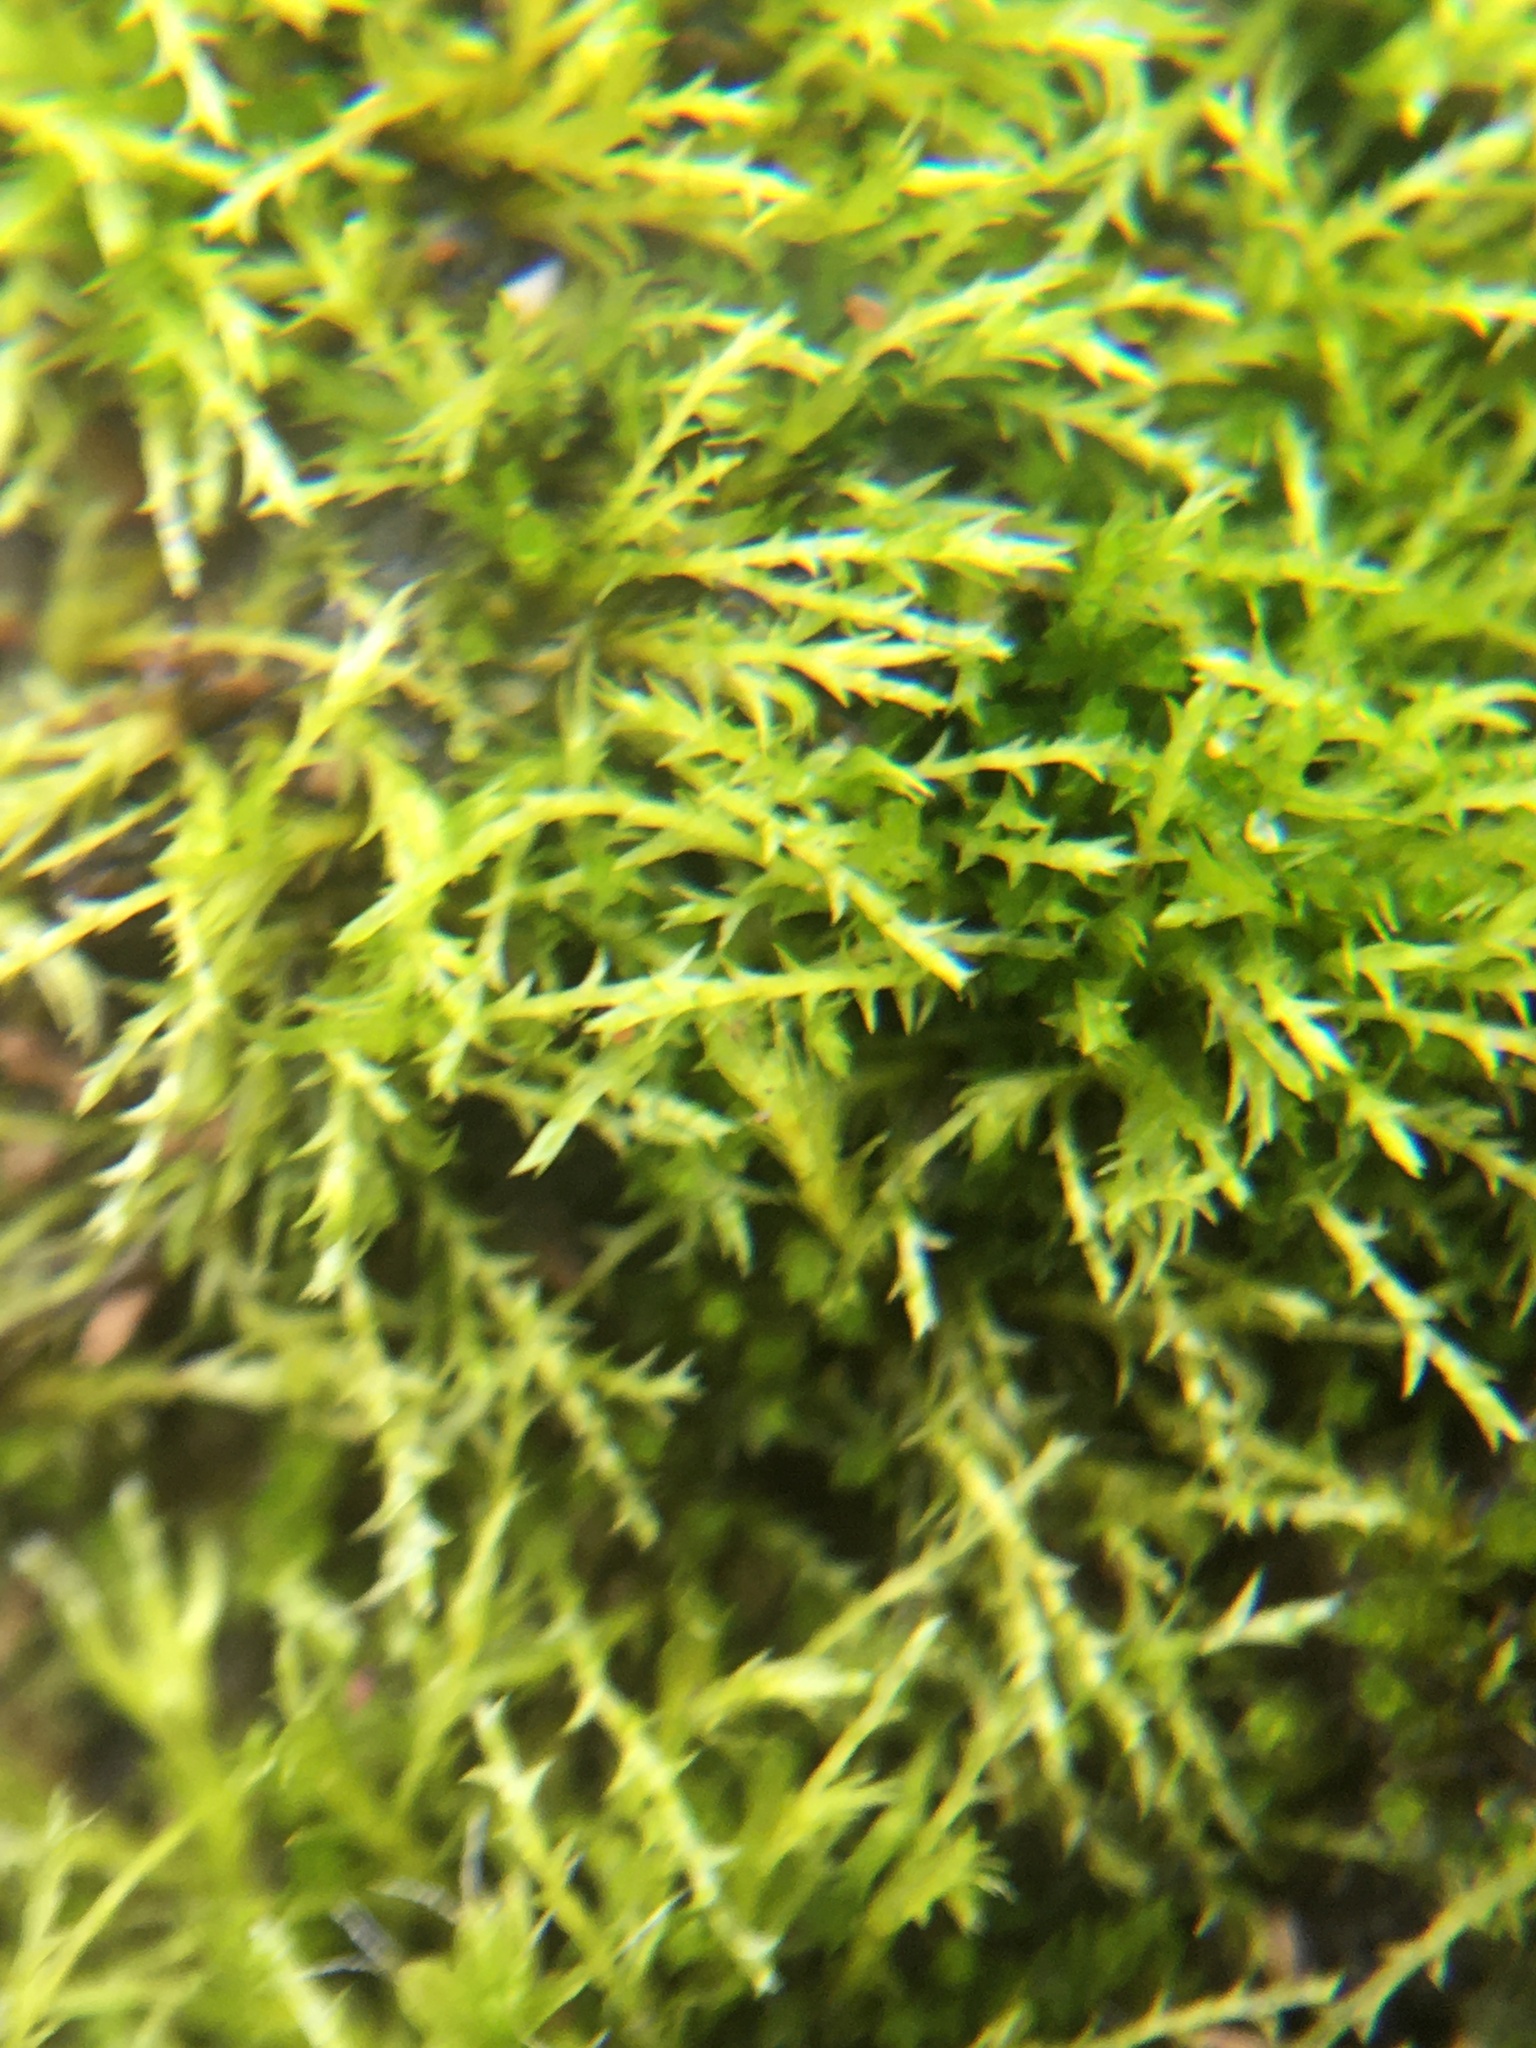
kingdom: Plantae
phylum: Bryophyta
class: Bryopsida
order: Dicranales
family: Ditrichaceae
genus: Pleuridium
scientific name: Pleuridium ecklonii
